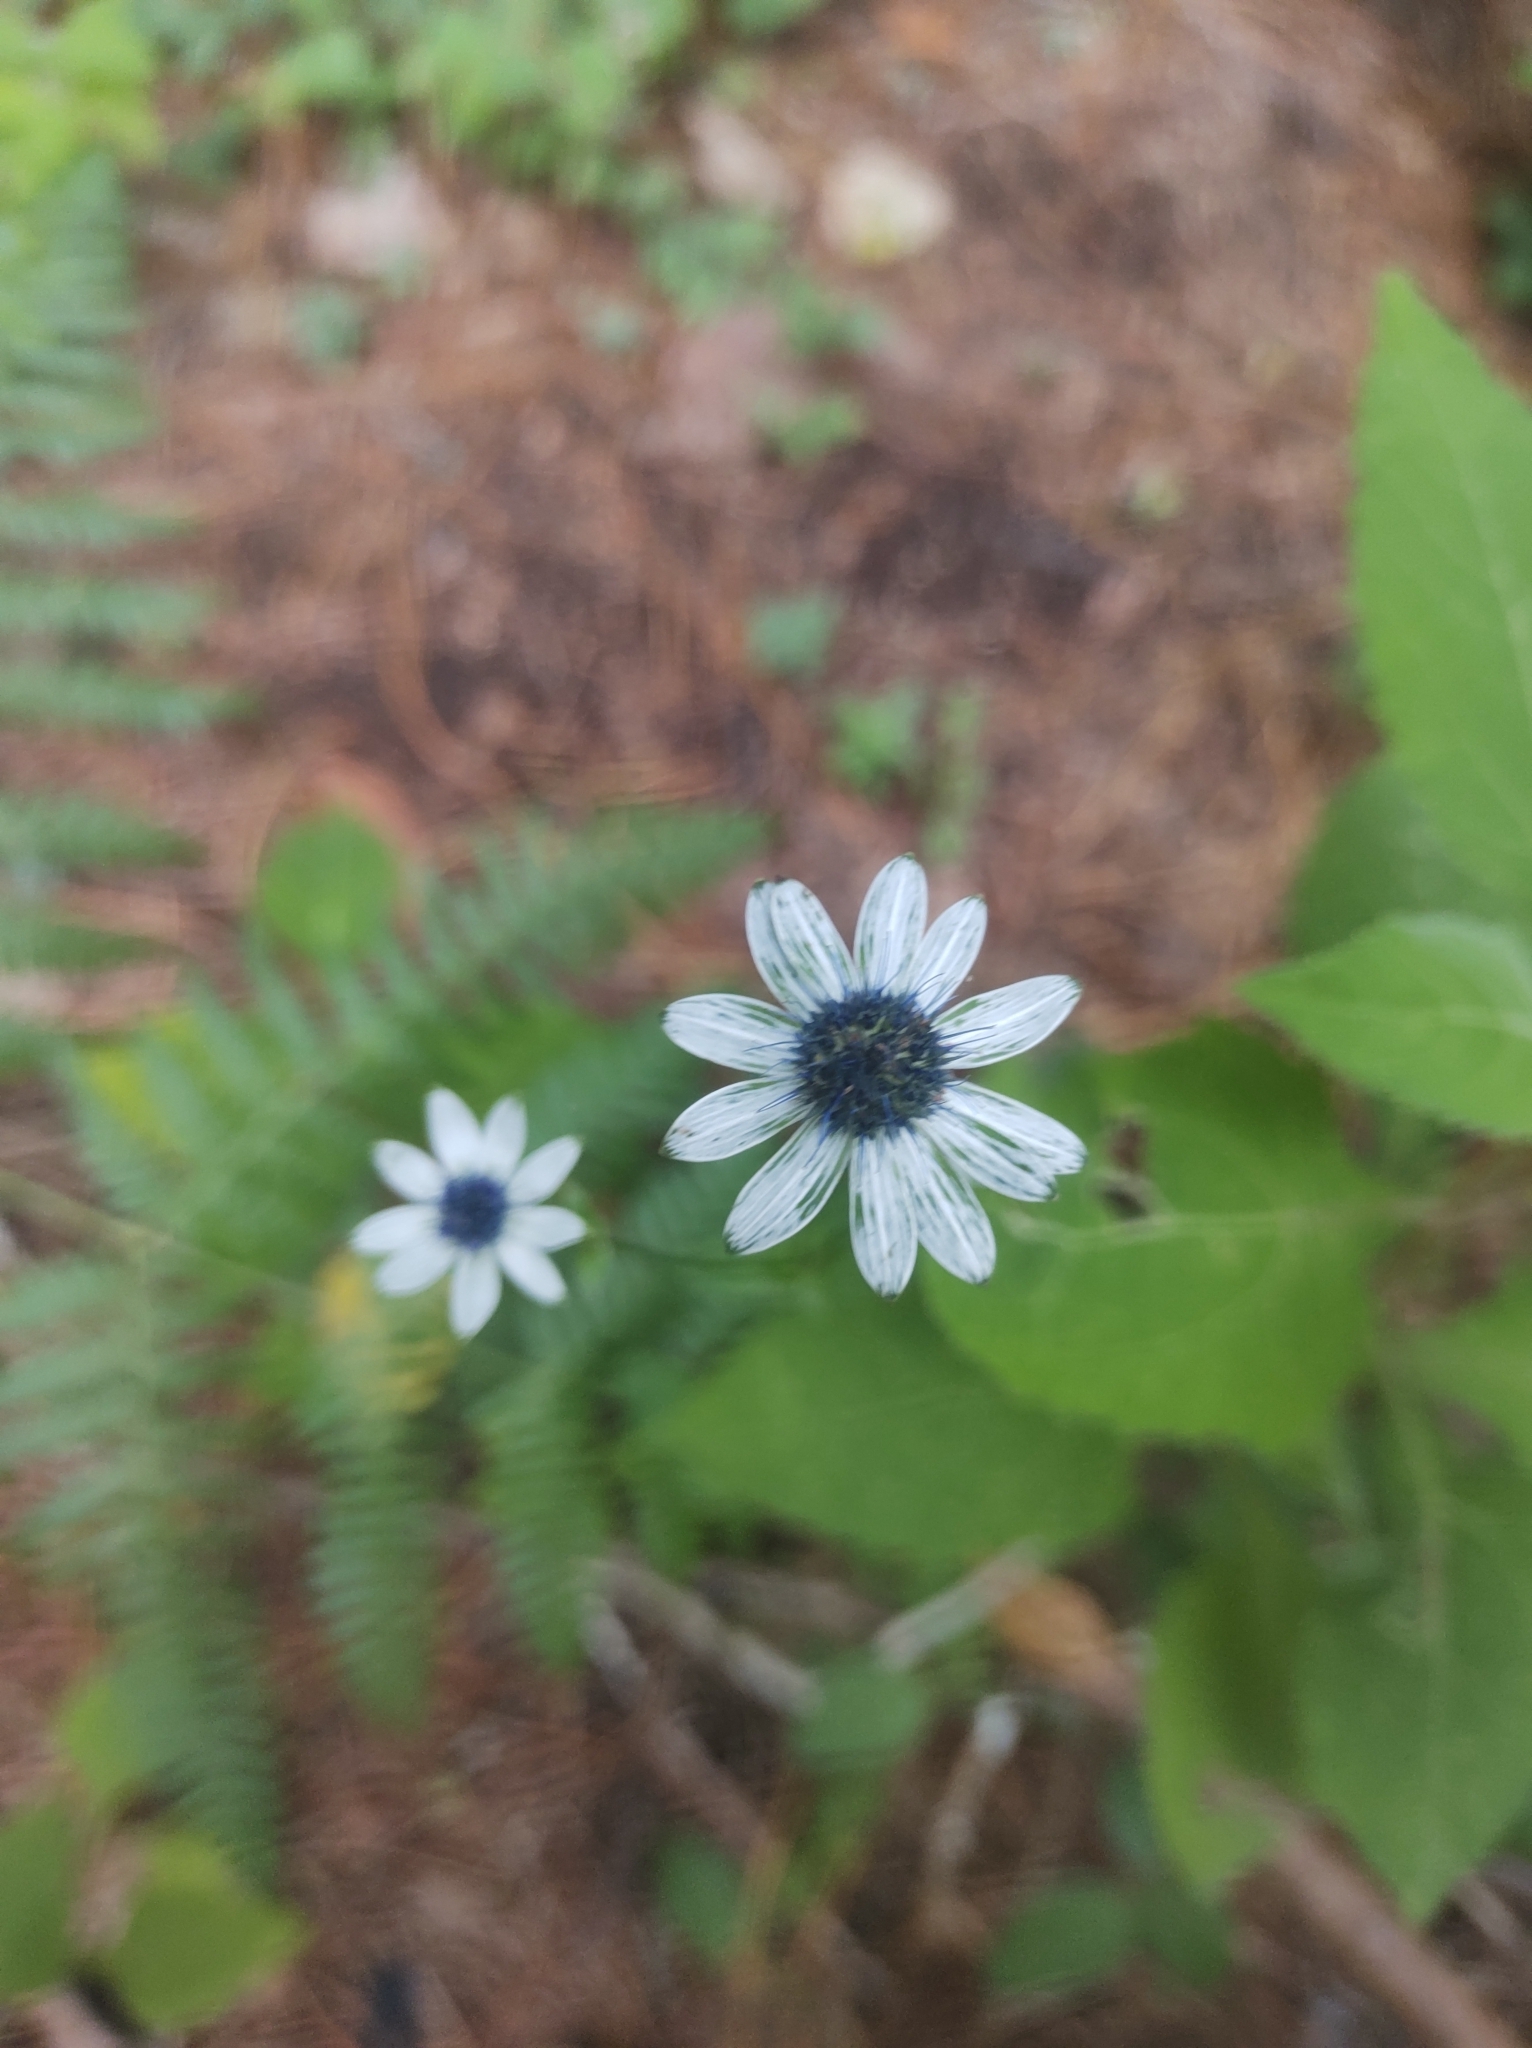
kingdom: Plantae
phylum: Tracheophyta
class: Magnoliopsida
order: Apiales
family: Apiaceae
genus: Eryngium
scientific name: Eryngium scaposum
